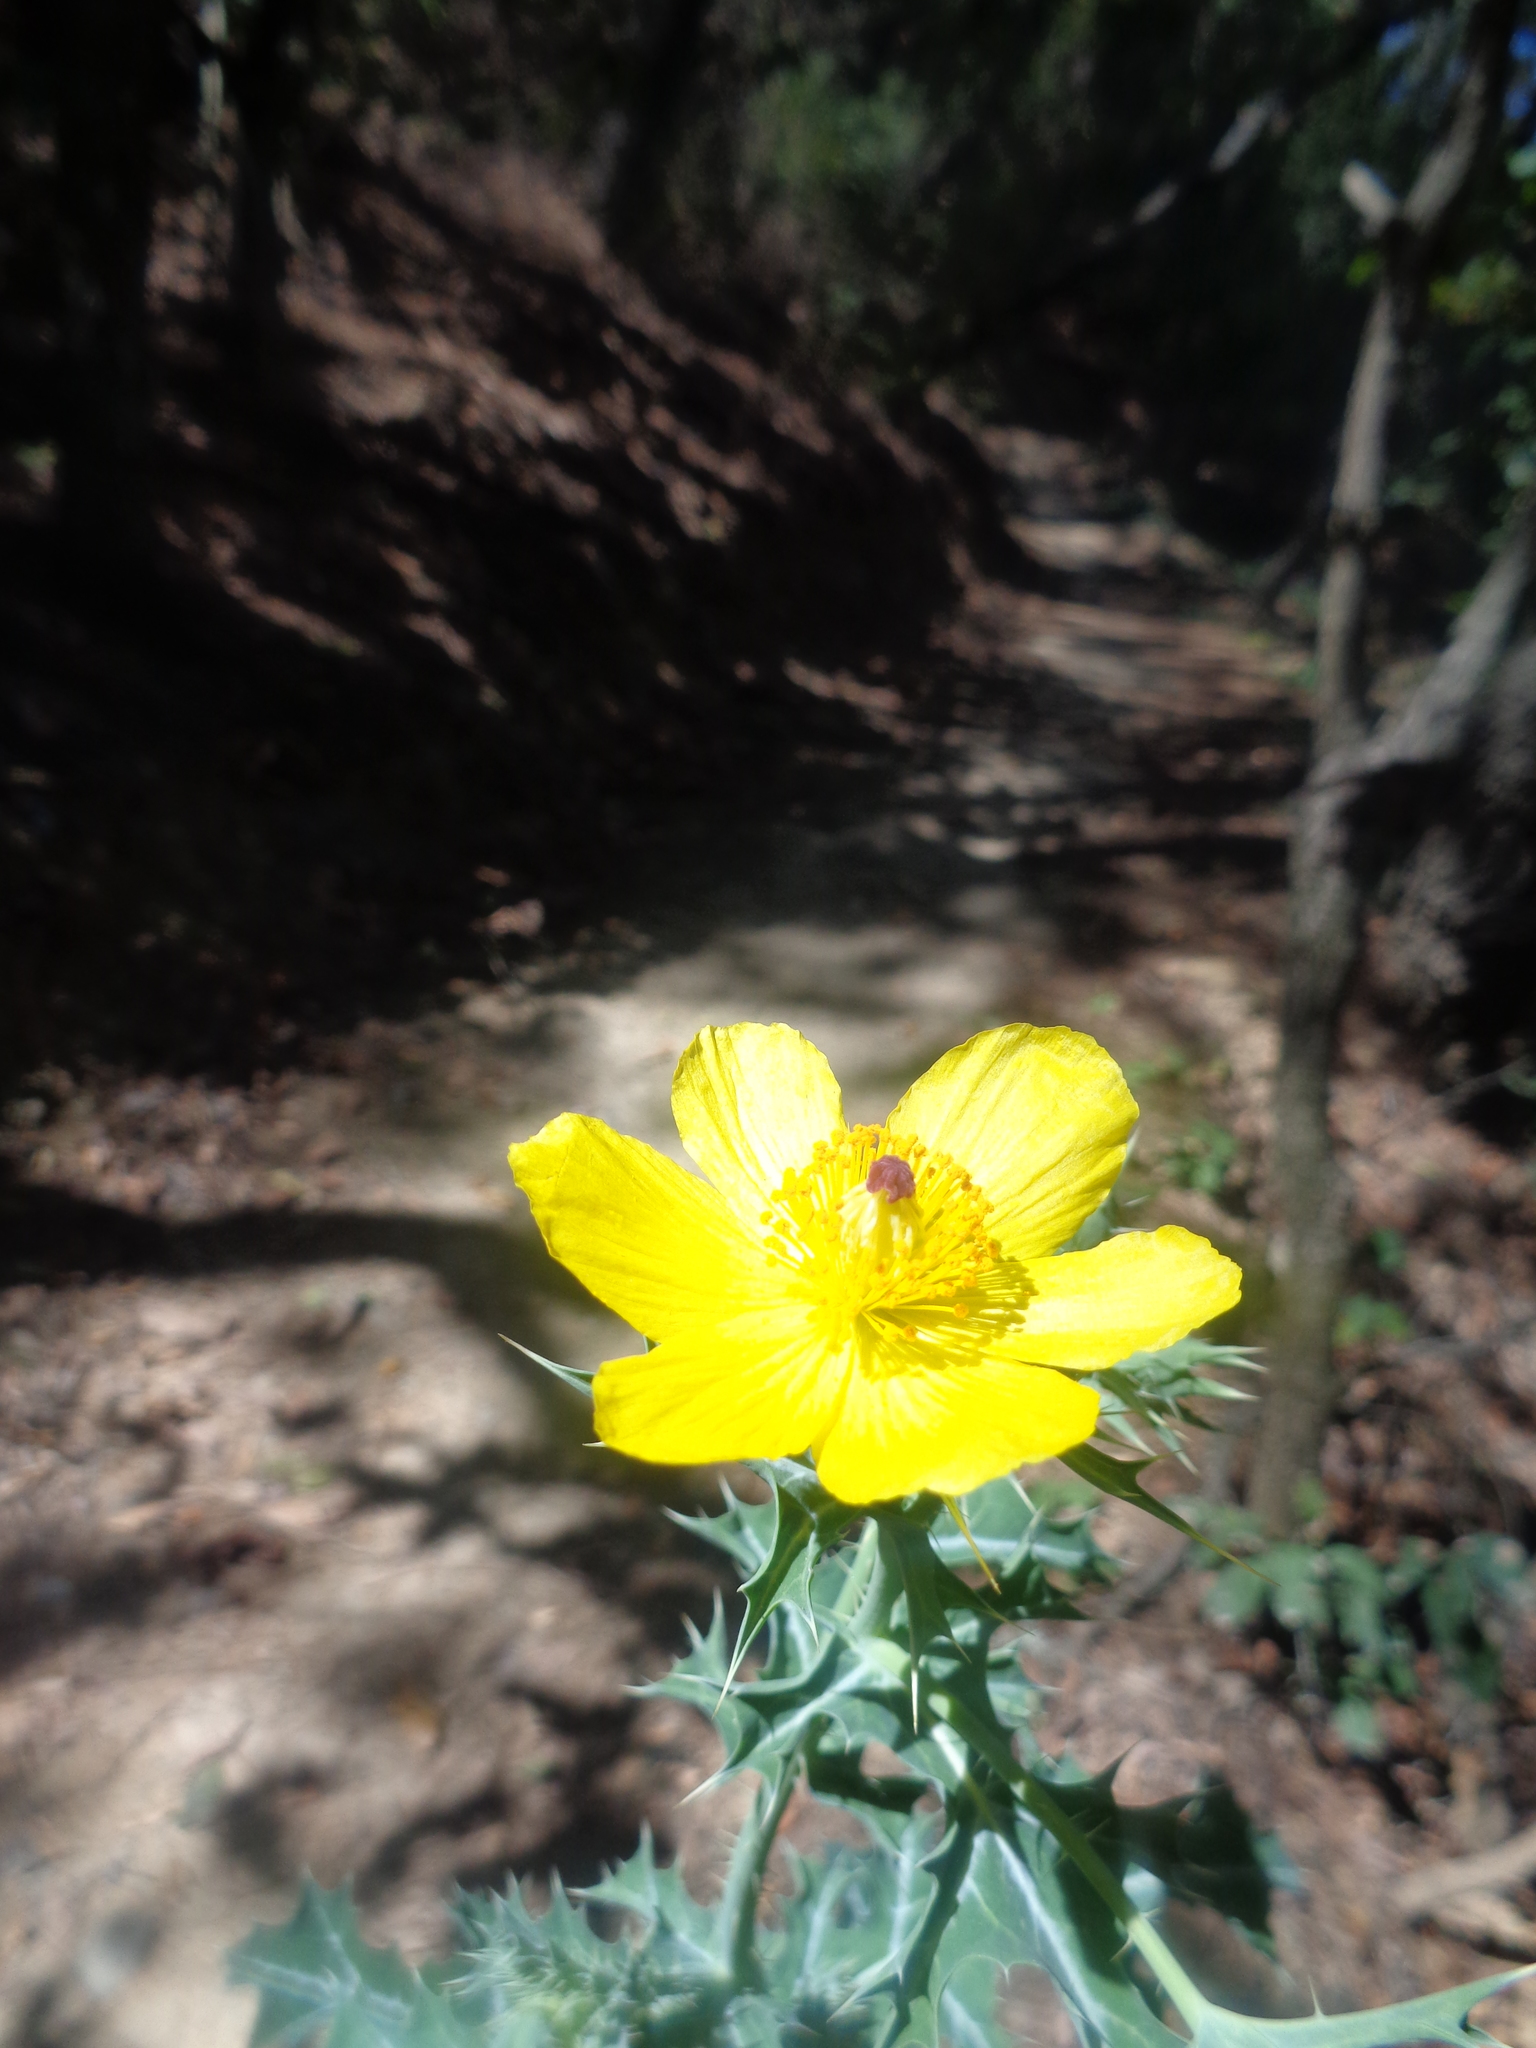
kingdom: Plantae
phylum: Tracheophyta
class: Magnoliopsida
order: Ranunculales
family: Papaveraceae
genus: Argemone
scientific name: Argemone mexicana
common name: Mexican poppy
